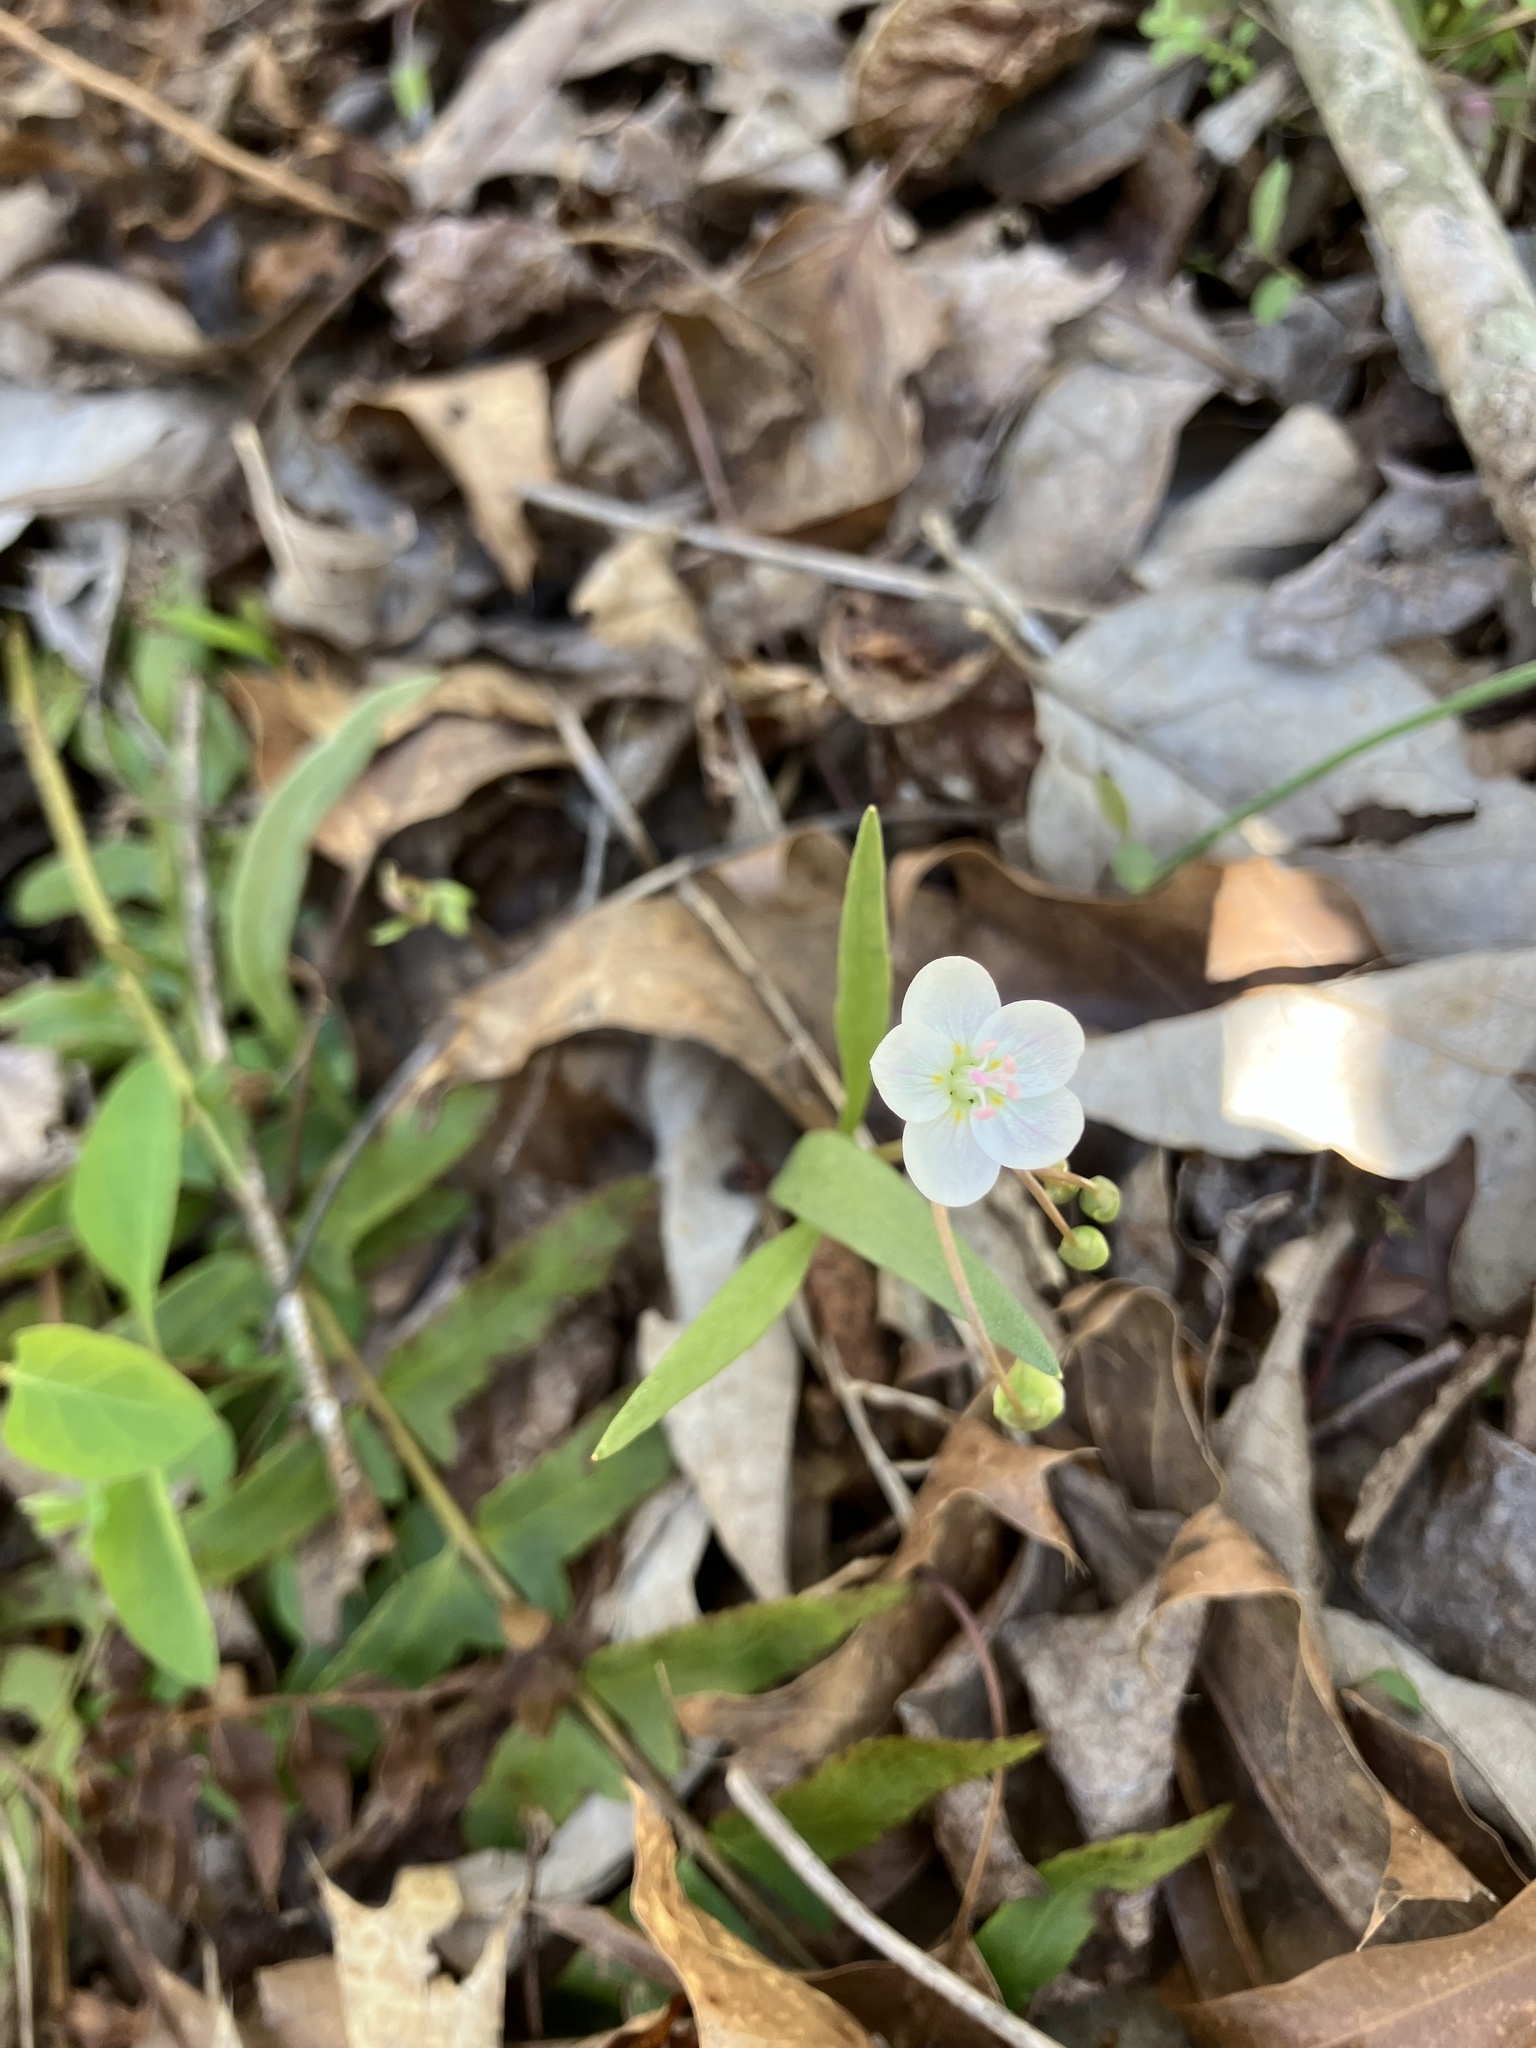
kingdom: Plantae
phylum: Tracheophyta
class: Magnoliopsida
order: Caryophyllales
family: Montiaceae
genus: Claytonia
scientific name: Claytonia virginica
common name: Virginia springbeauty
